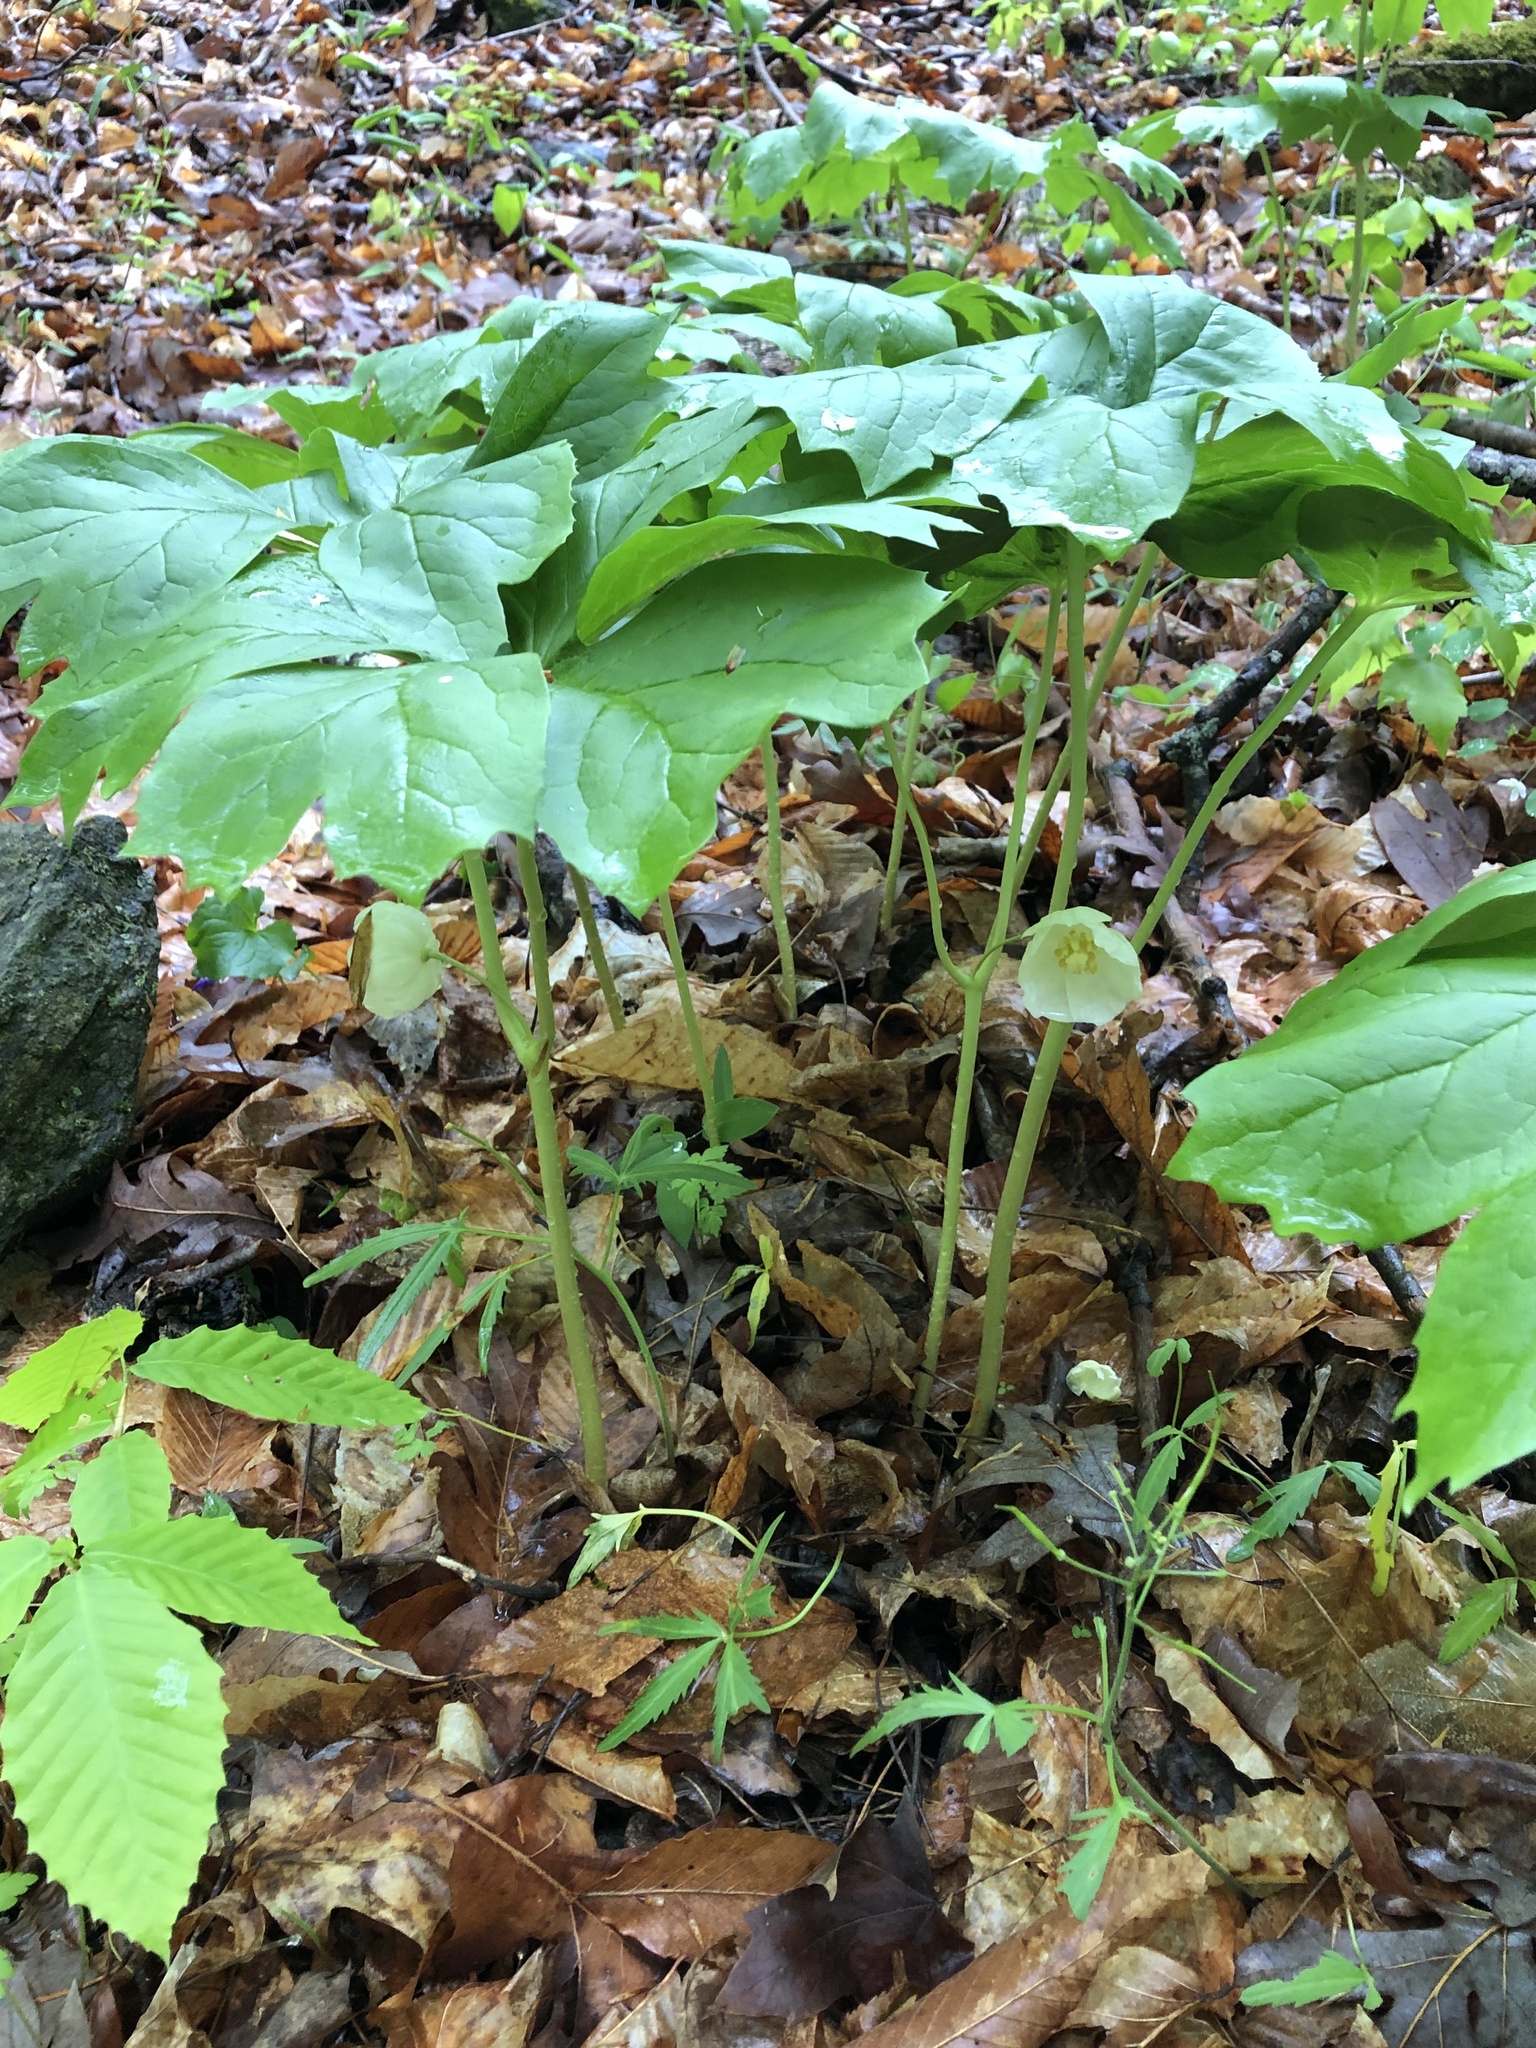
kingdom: Plantae
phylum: Tracheophyta
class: Magnoliopsida
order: Ranunculales
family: Berberidaceae
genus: Podophyllum
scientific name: Podophyllum peltatum
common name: Wild mandrake
